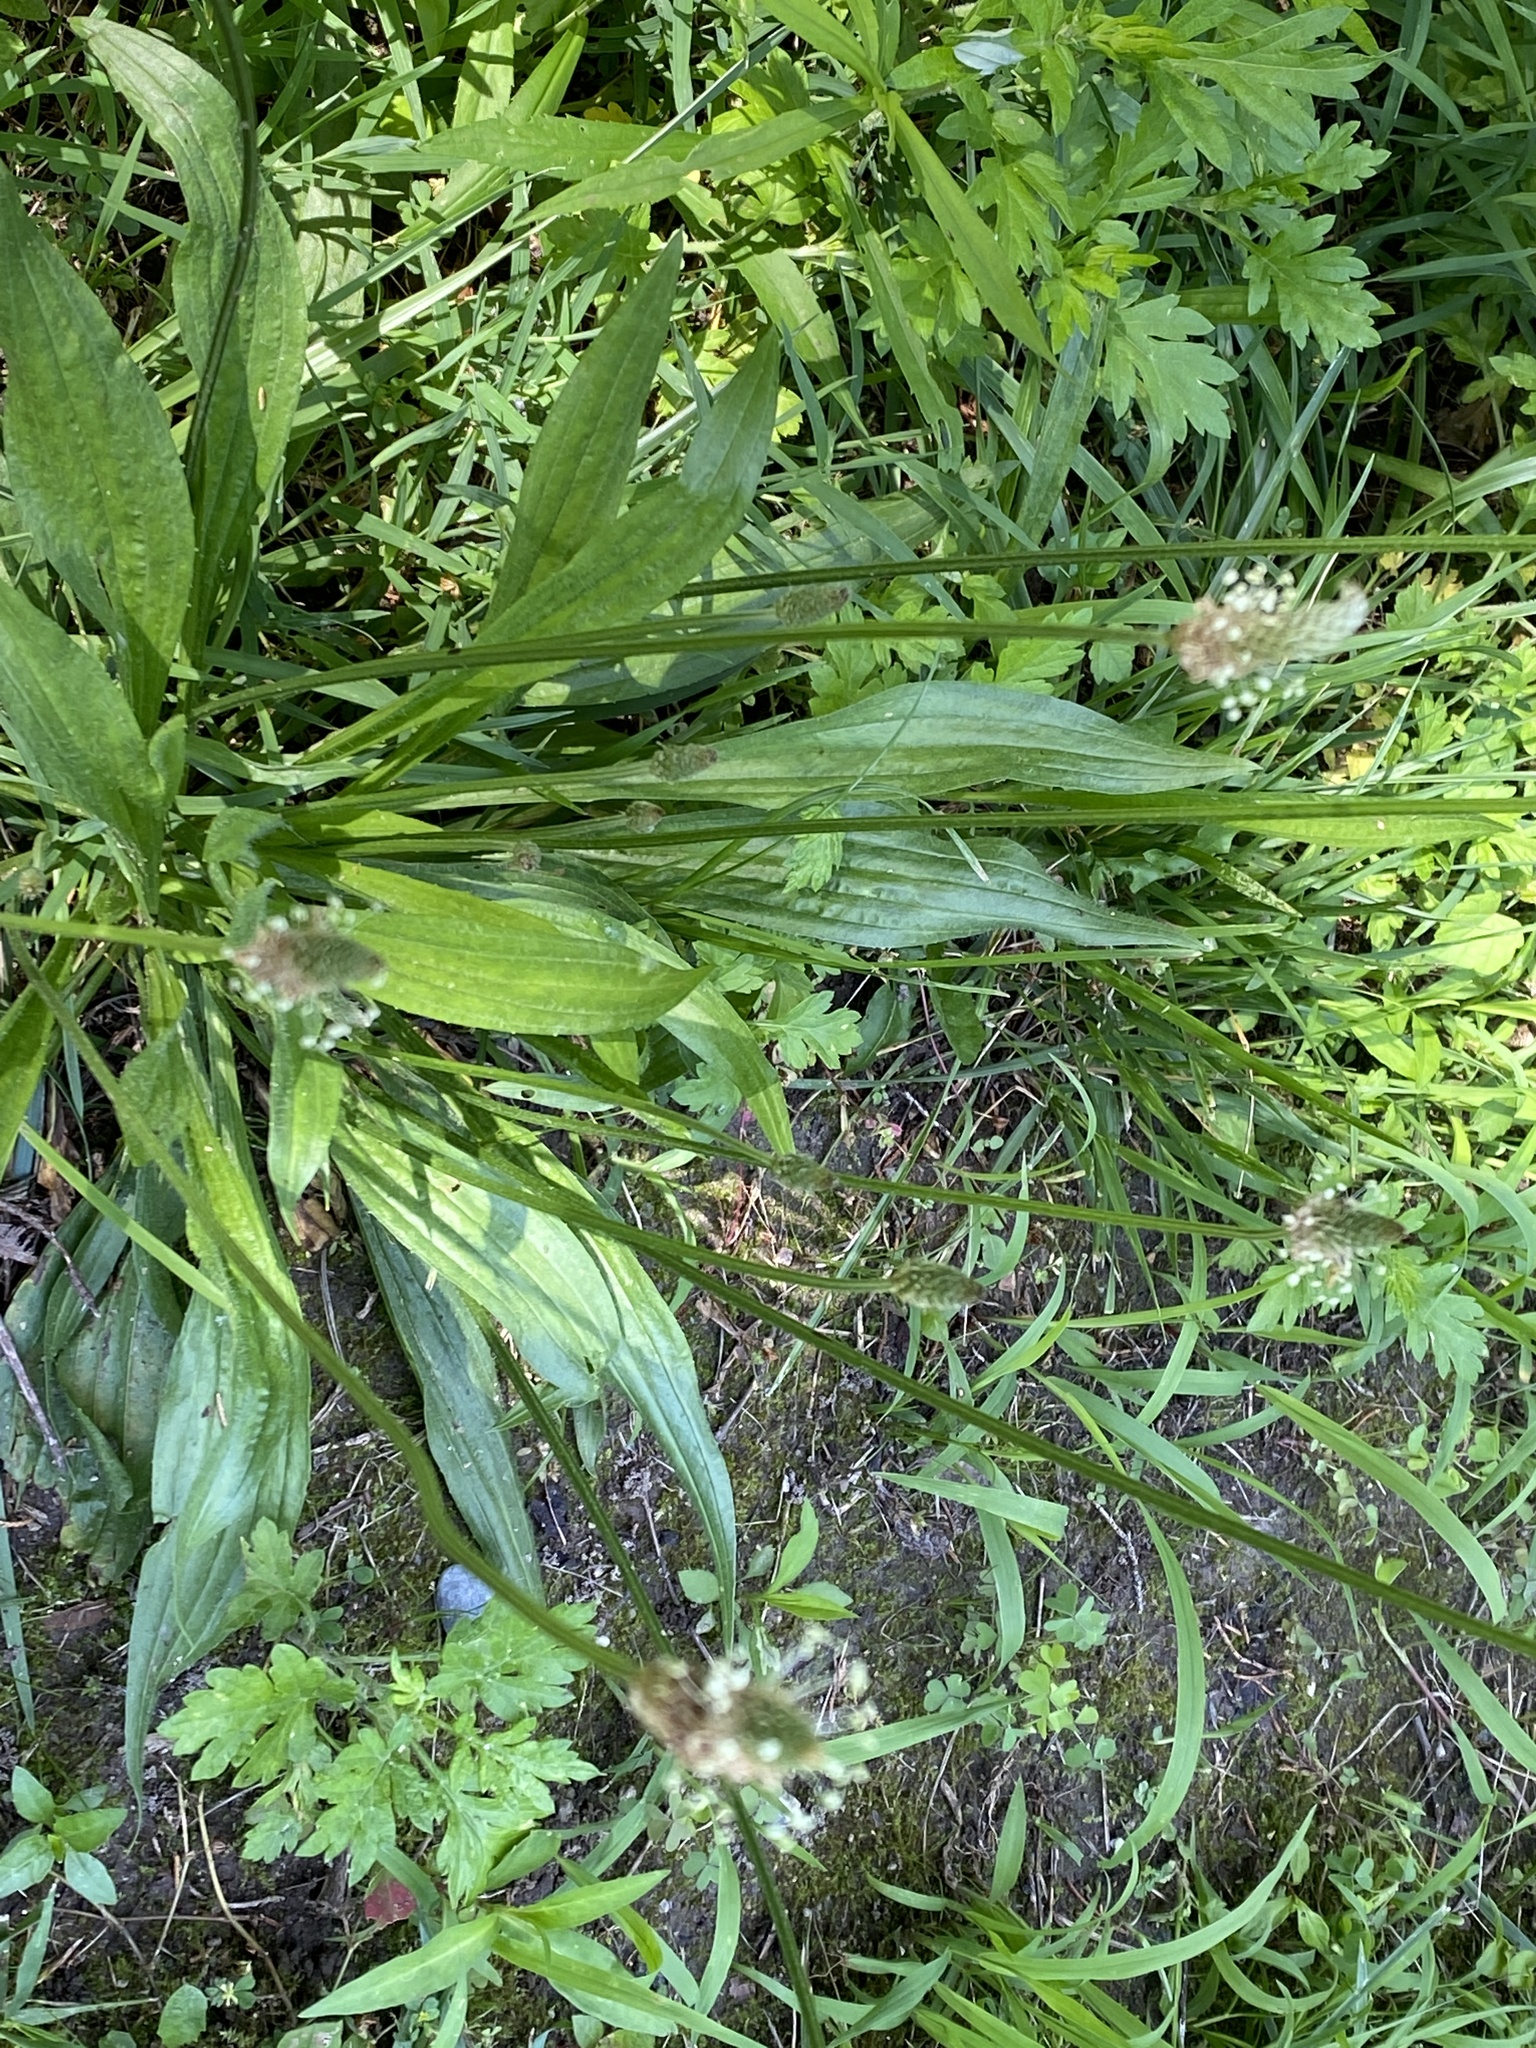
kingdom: Plantae
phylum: Tracheophyta
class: Magnoliopsida
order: Lamiales
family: Plantaginaceae
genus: Plantago
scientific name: Plantago lanceolata
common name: Ribwort plantain
